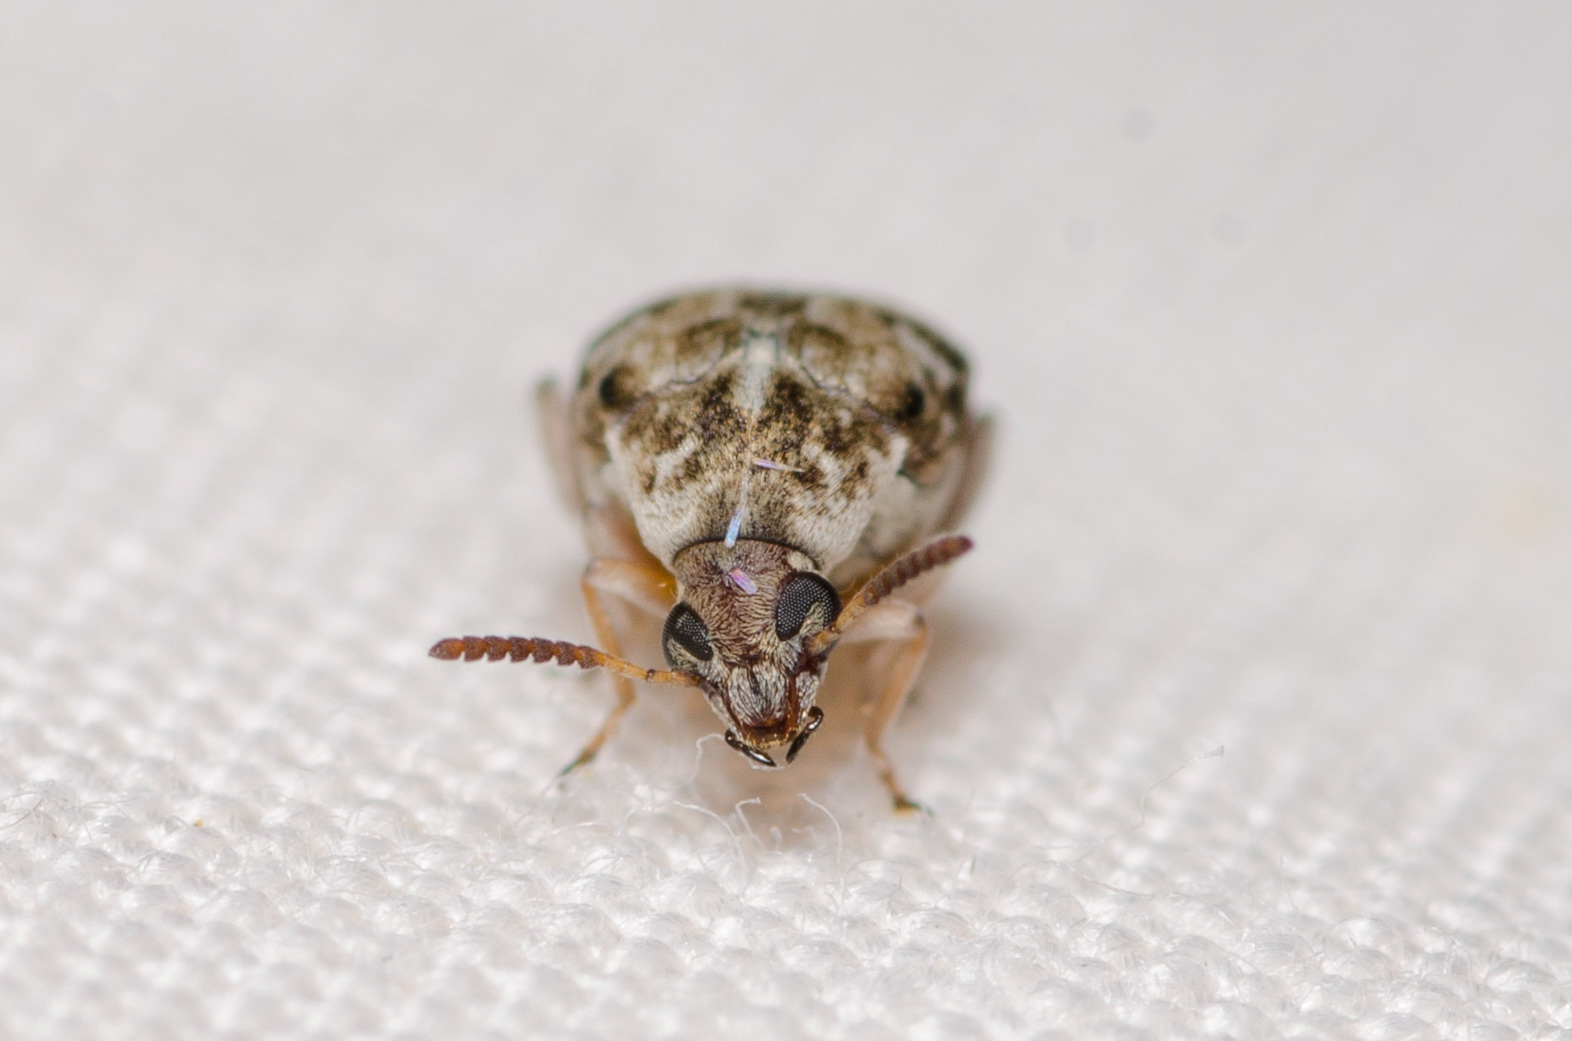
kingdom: Animalia
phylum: Arthropoda
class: Insecta
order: Coleoptera
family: Chrysomelidae
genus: Algarobius
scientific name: Algarobius bottimeri
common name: Kiawe bruchid
